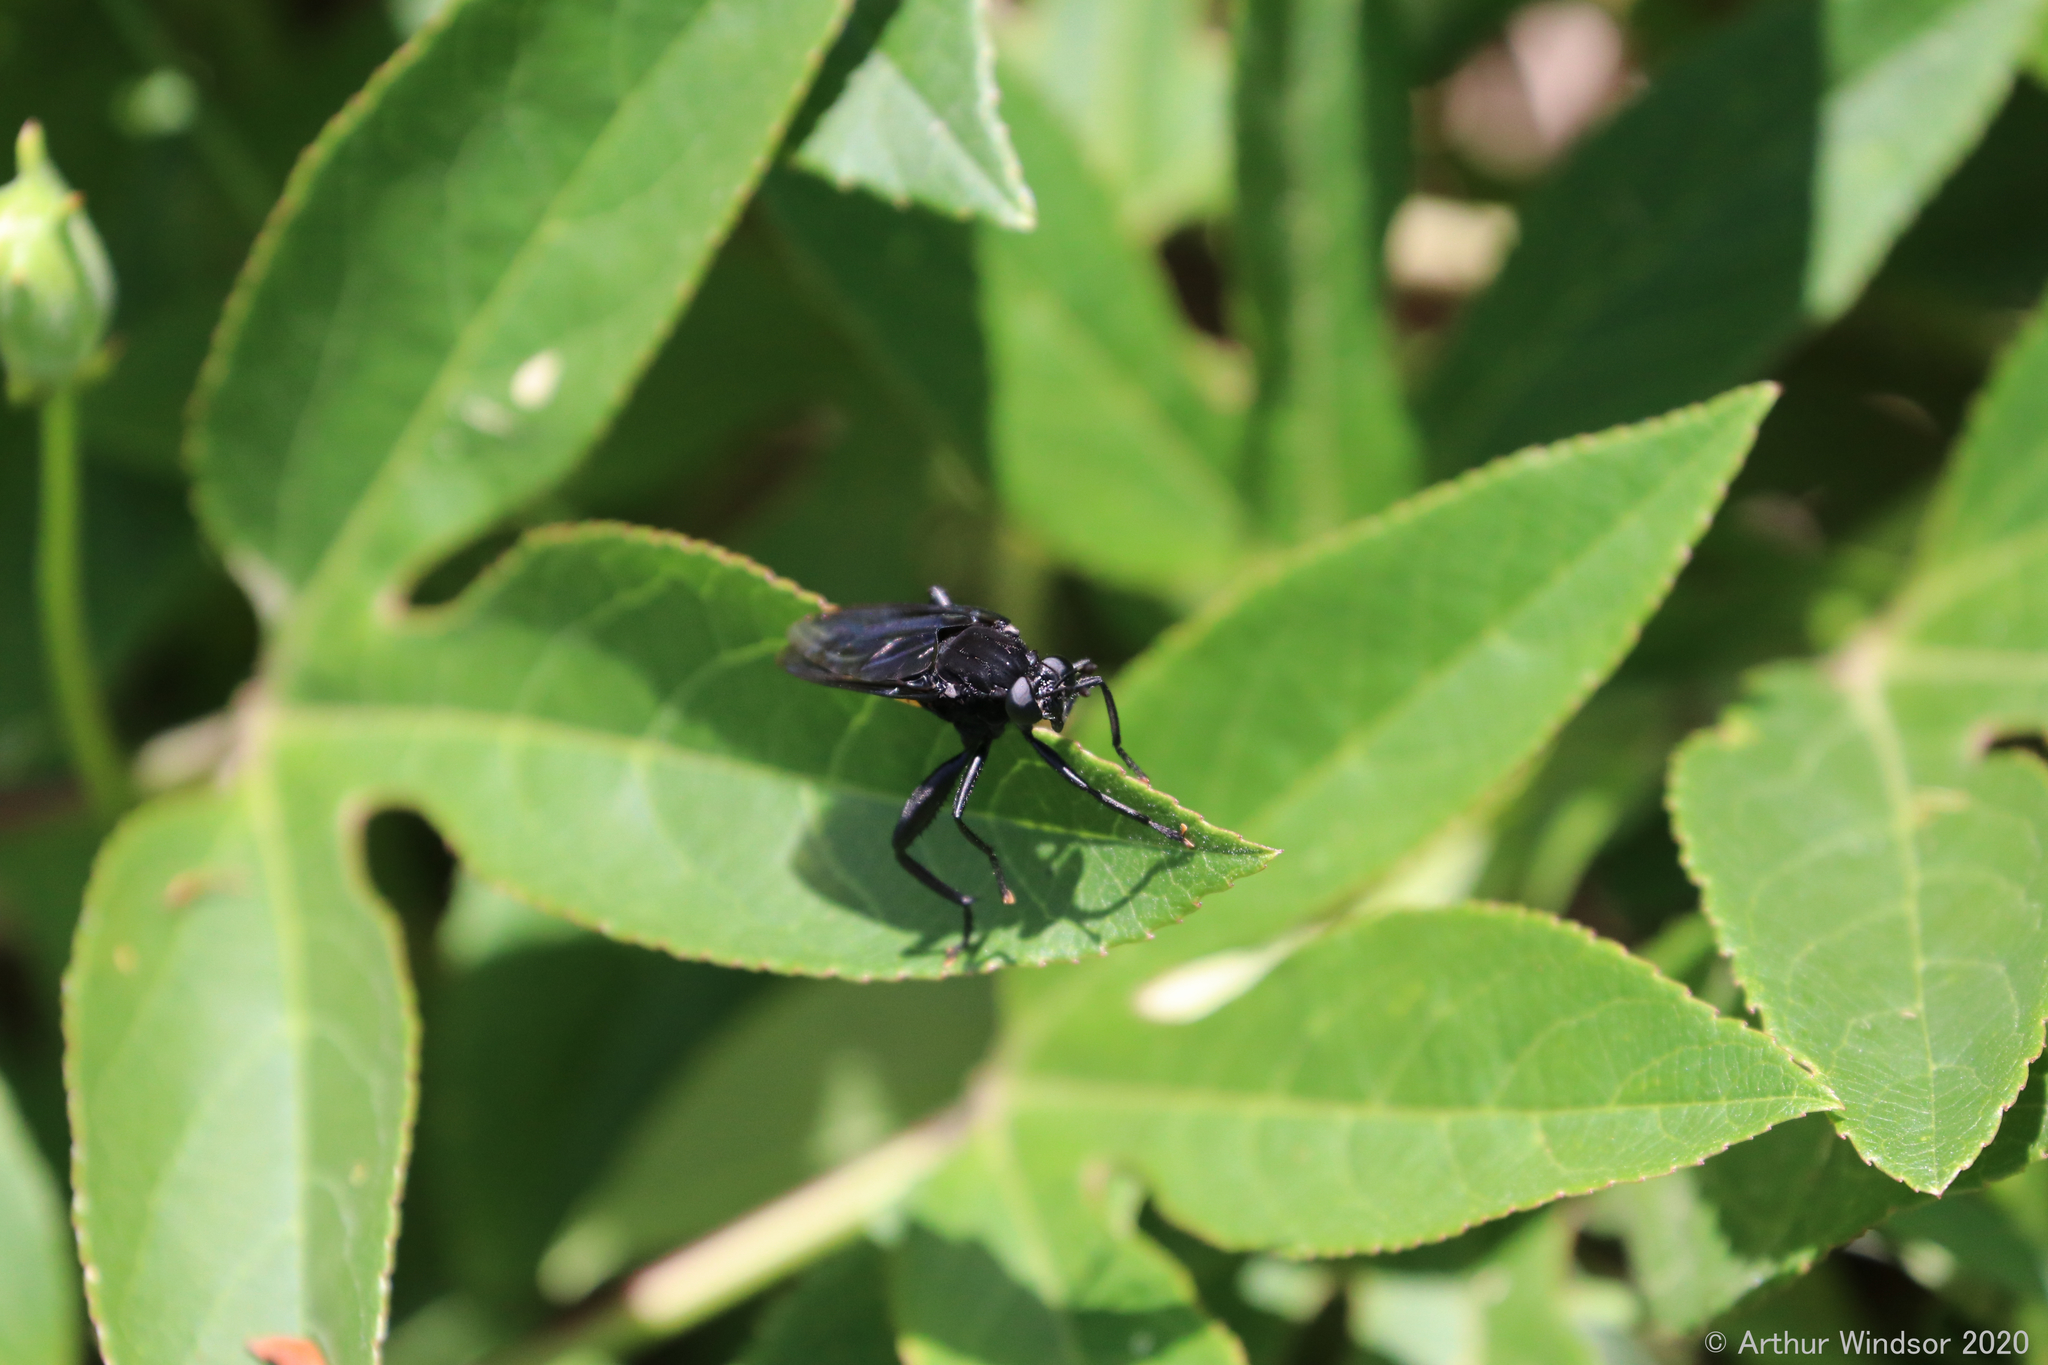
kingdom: Animalia
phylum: Arthropoda
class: Insecta
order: Diptera
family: Mydidae
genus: Mydas
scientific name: Mydas clavatus
